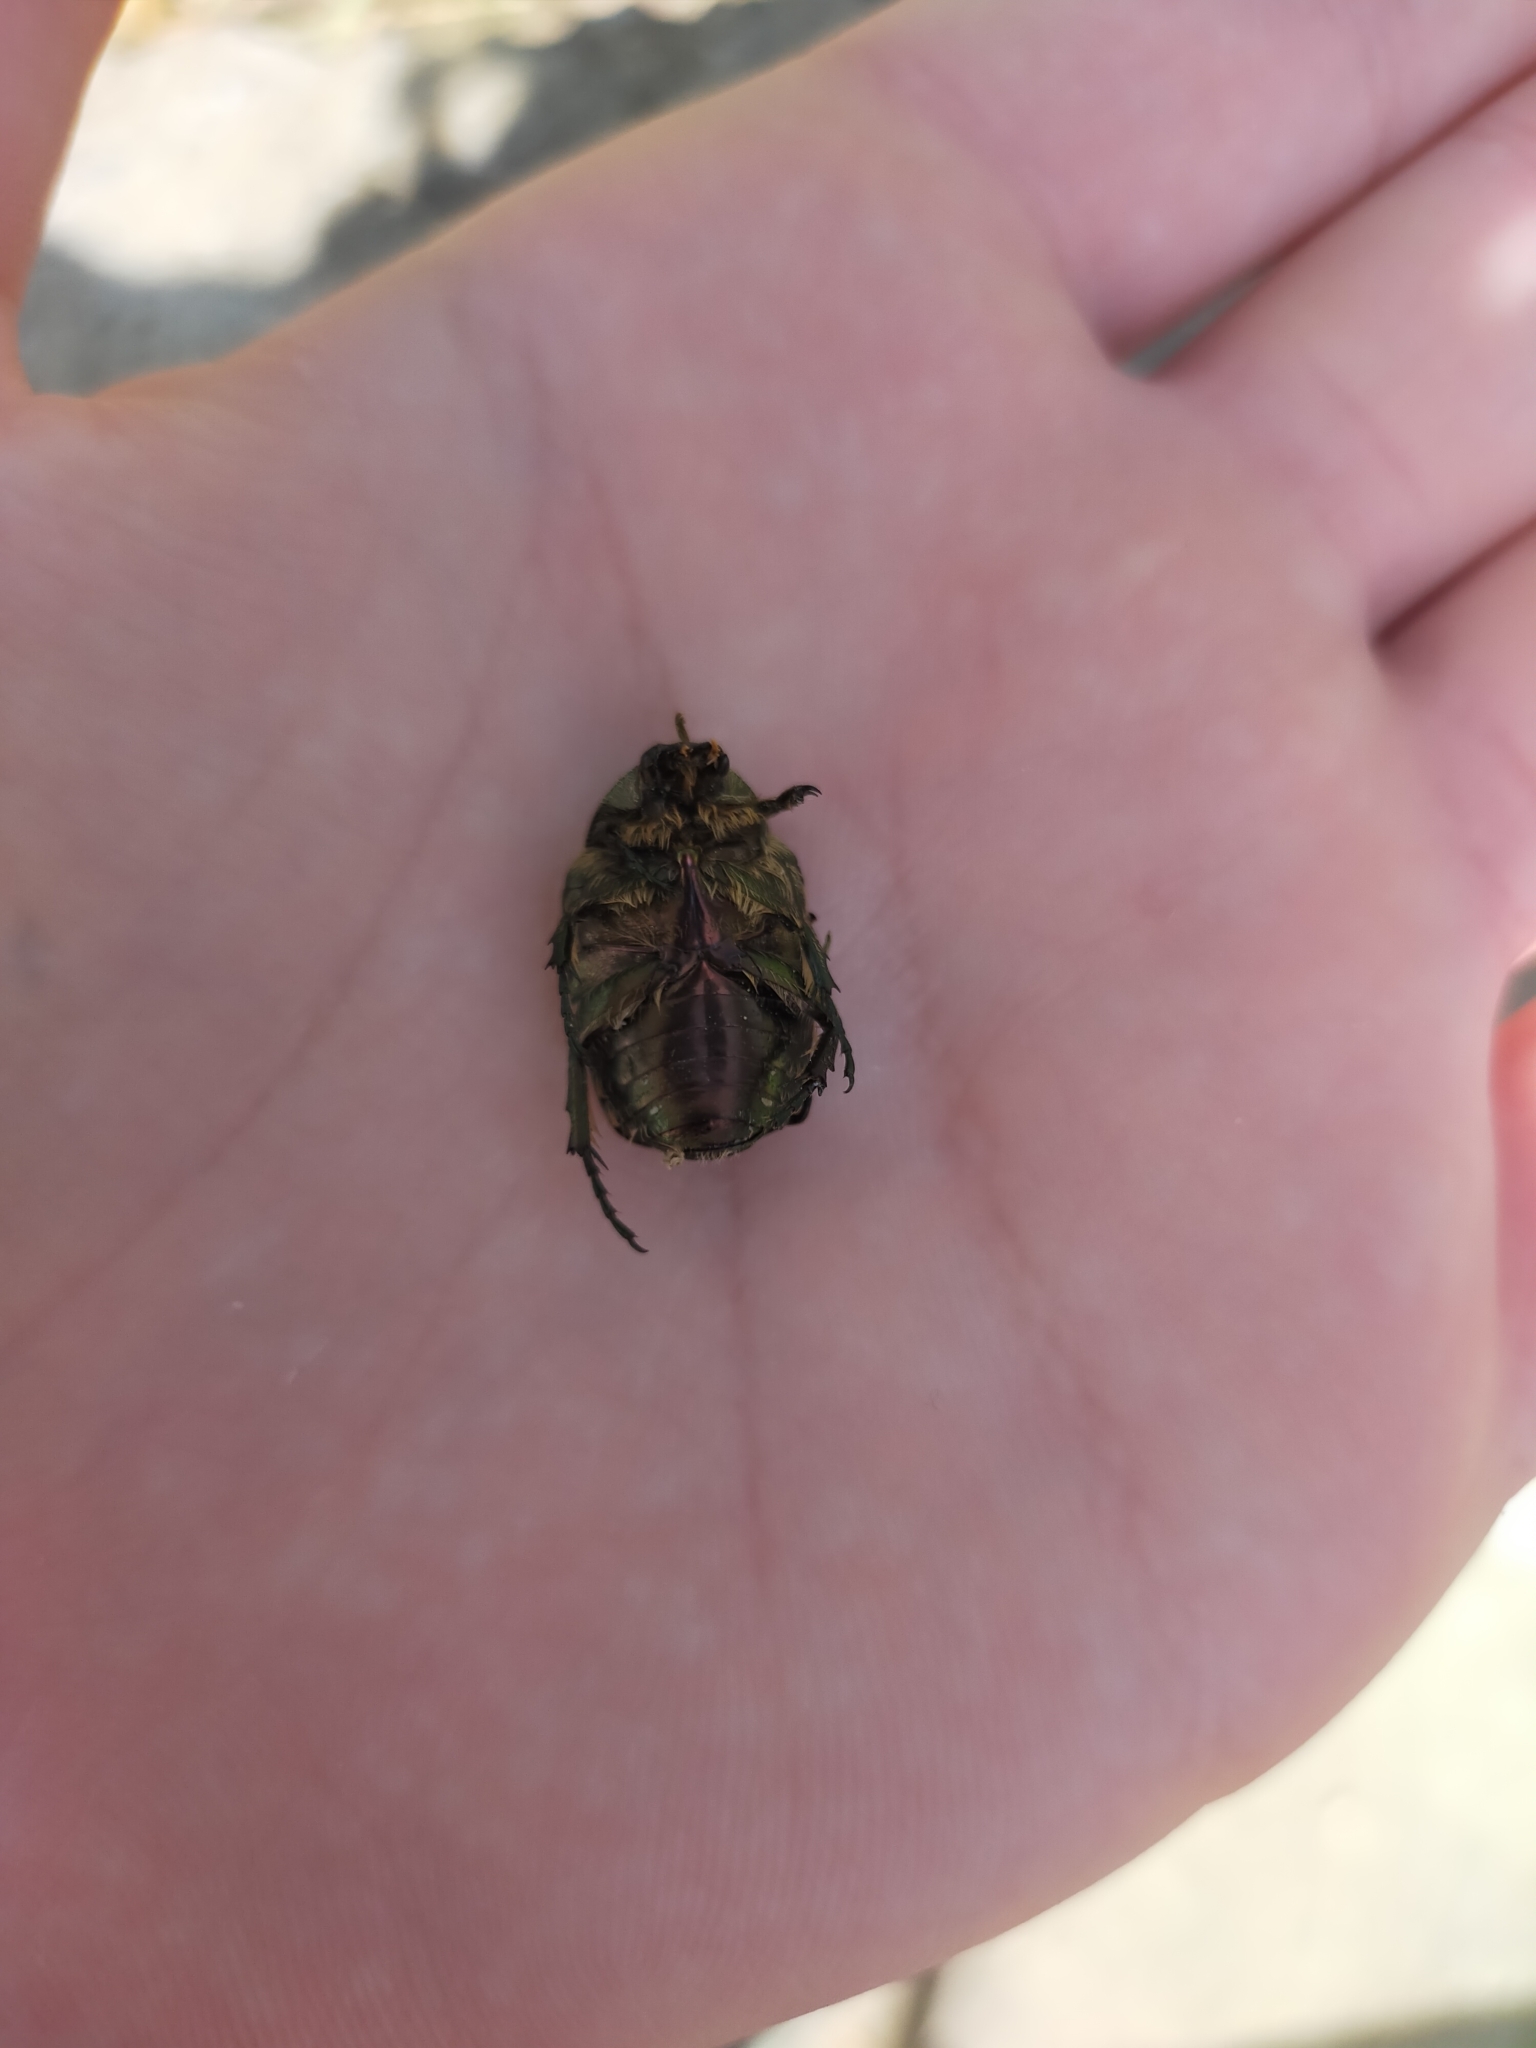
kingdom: Animalia
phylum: Arthropoda
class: Insecta
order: Coleoptera
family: Scarabaeidae
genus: Cetonia
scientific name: Cetonia aurata
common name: Rose chafer
